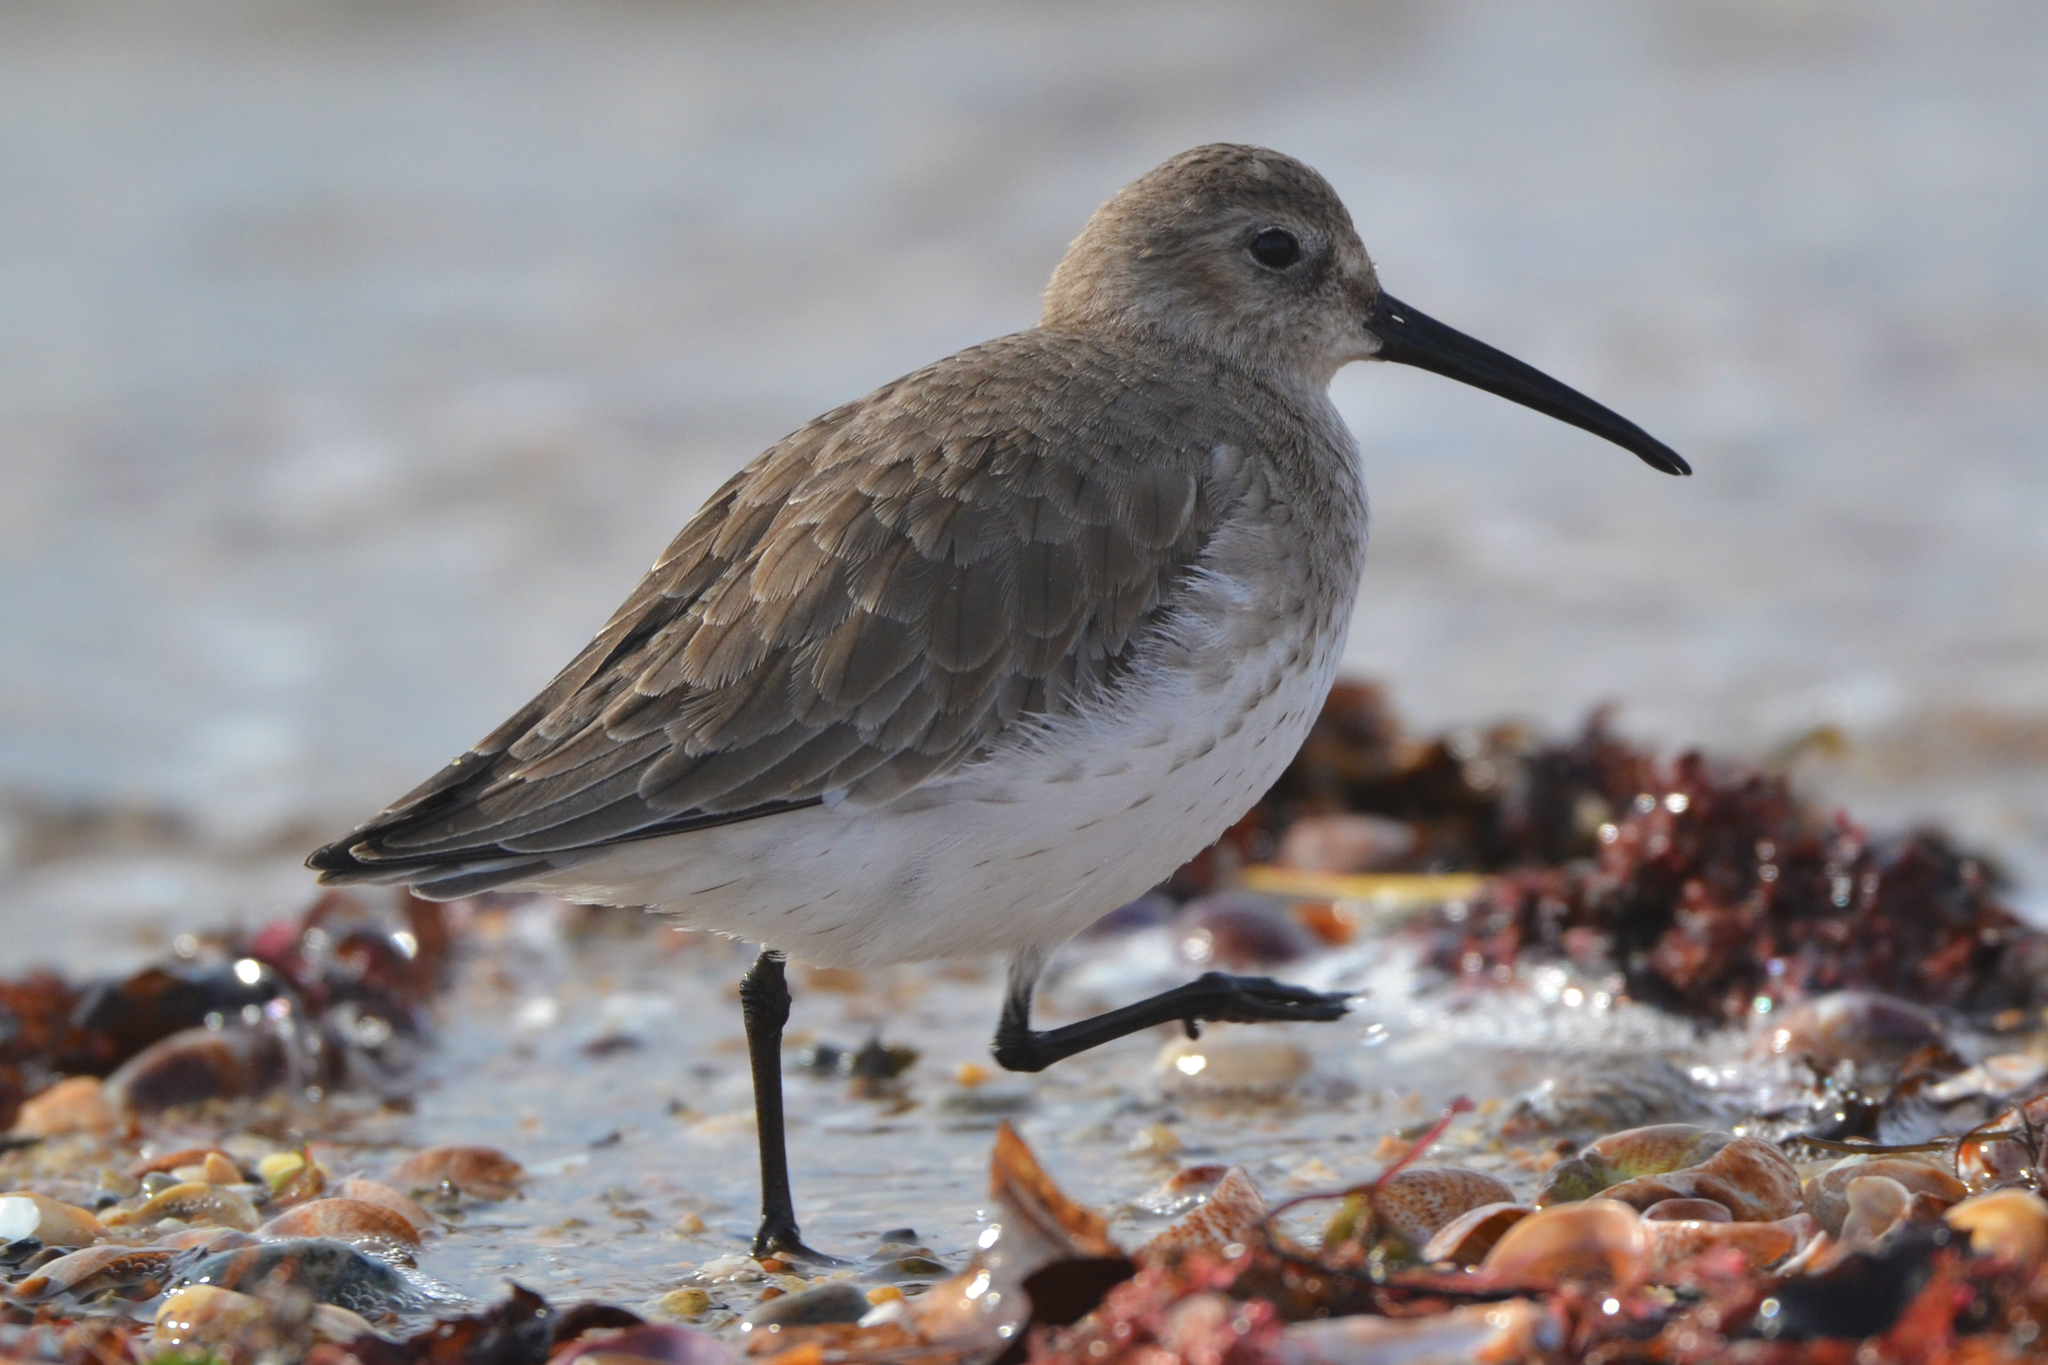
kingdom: Animalia
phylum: Chordata
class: Aves
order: Charadriiformes
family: Scolopacidae
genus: Calidris
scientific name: Calidris alpina
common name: Dunlin
